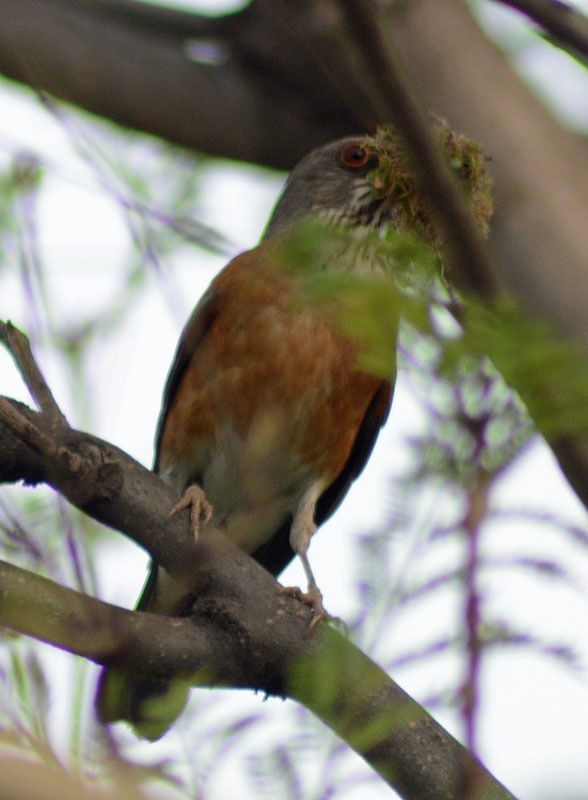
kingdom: Animalia
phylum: Chordata
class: Aves
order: Passeriformes
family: Turdidae
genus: Turdus
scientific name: Turdus rufopalliatus
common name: Rufous-backed robin
